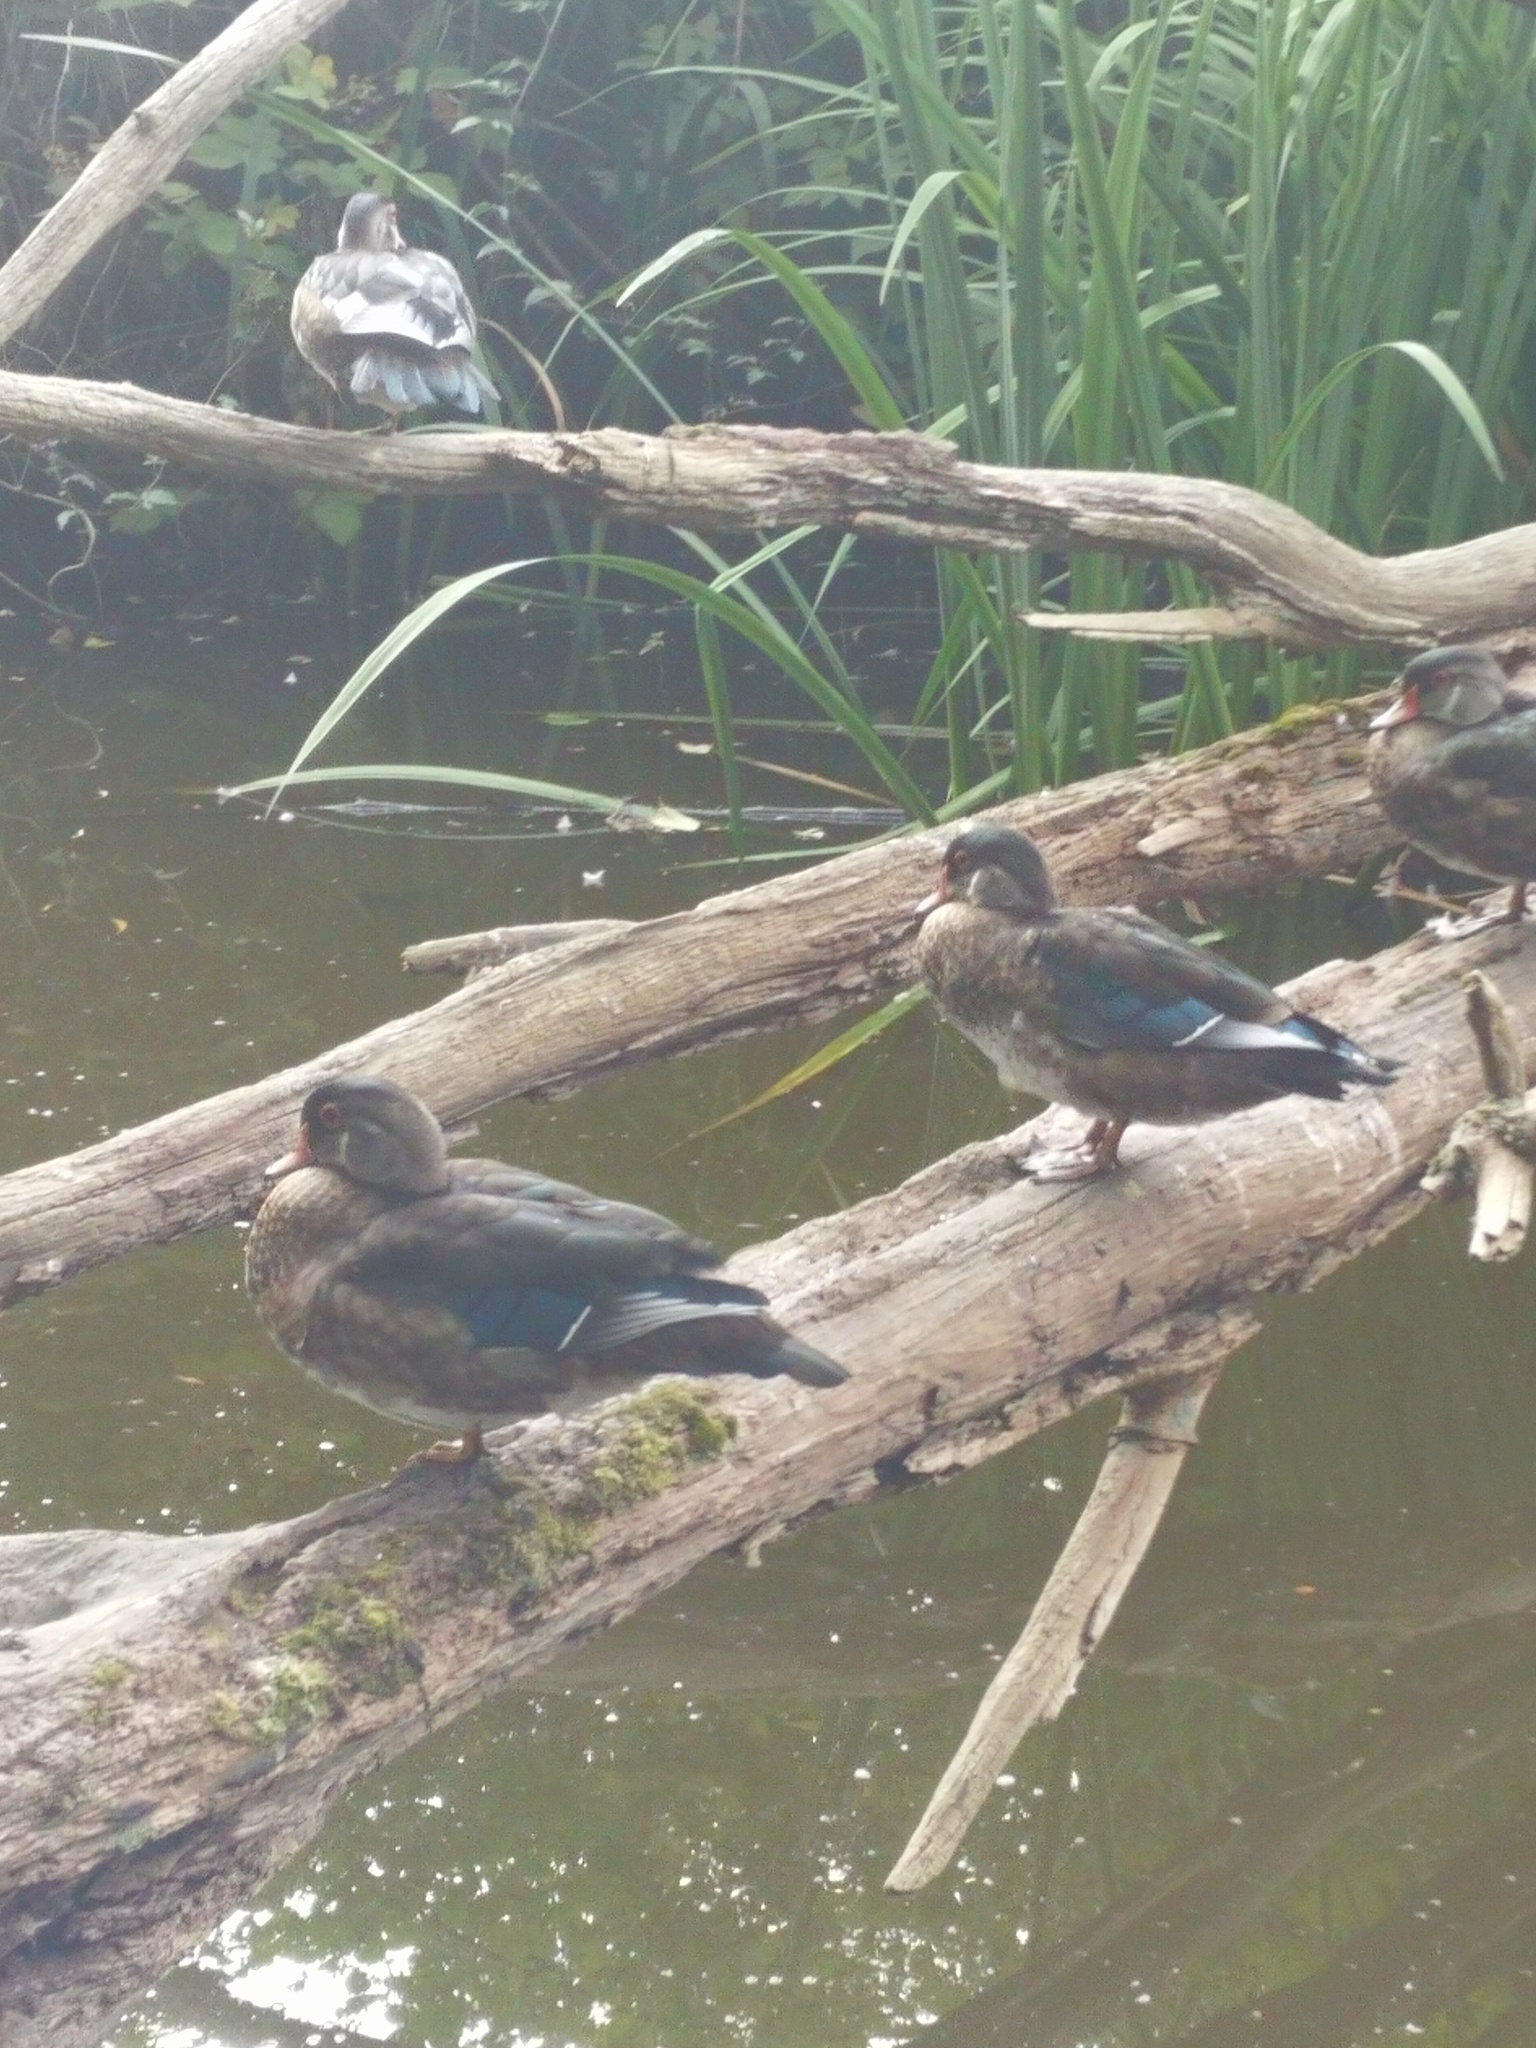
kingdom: Animalia
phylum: Chordata
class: Aves
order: Anseriformes
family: Anatidae
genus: Aix
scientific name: Aix sponsa
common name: Wood duck
